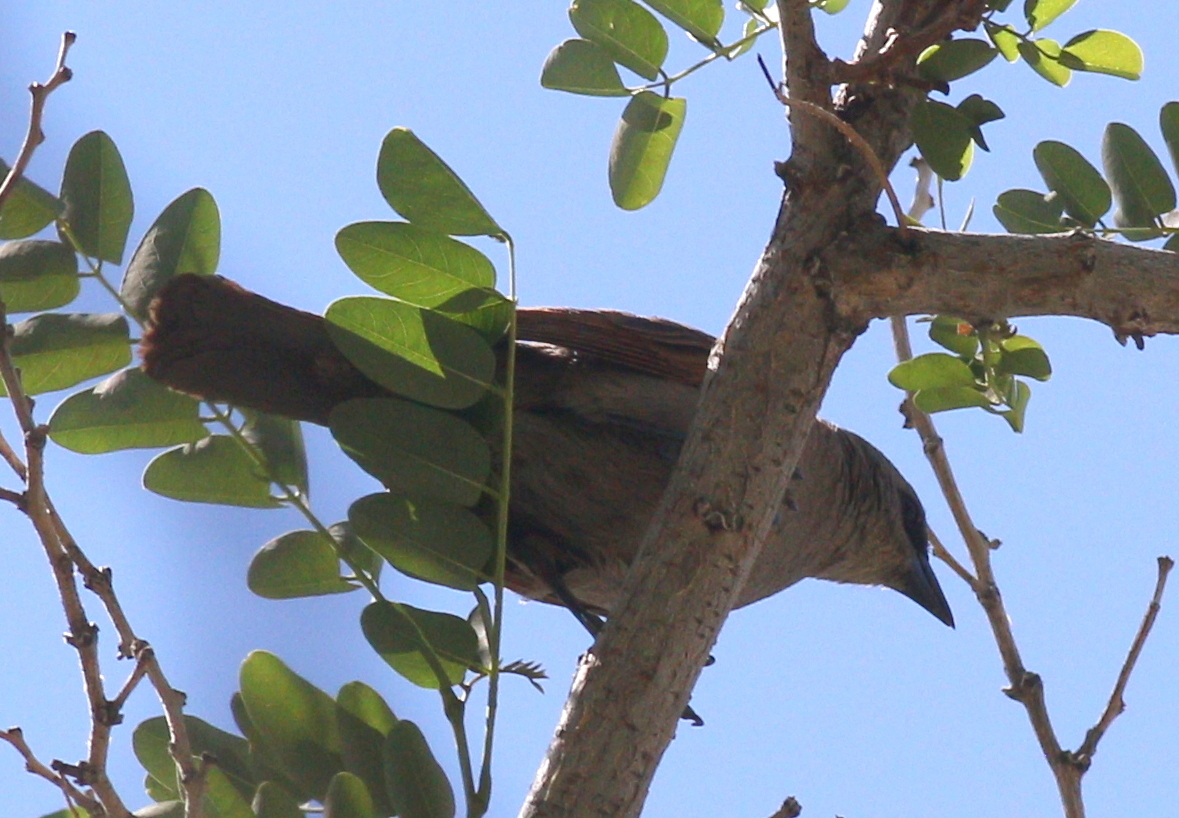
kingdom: Animalia
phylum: Chordata
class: Aves
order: Passeriformes
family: Icteridae
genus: Agelaioides
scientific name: Agelaioides badius
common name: Baywing
